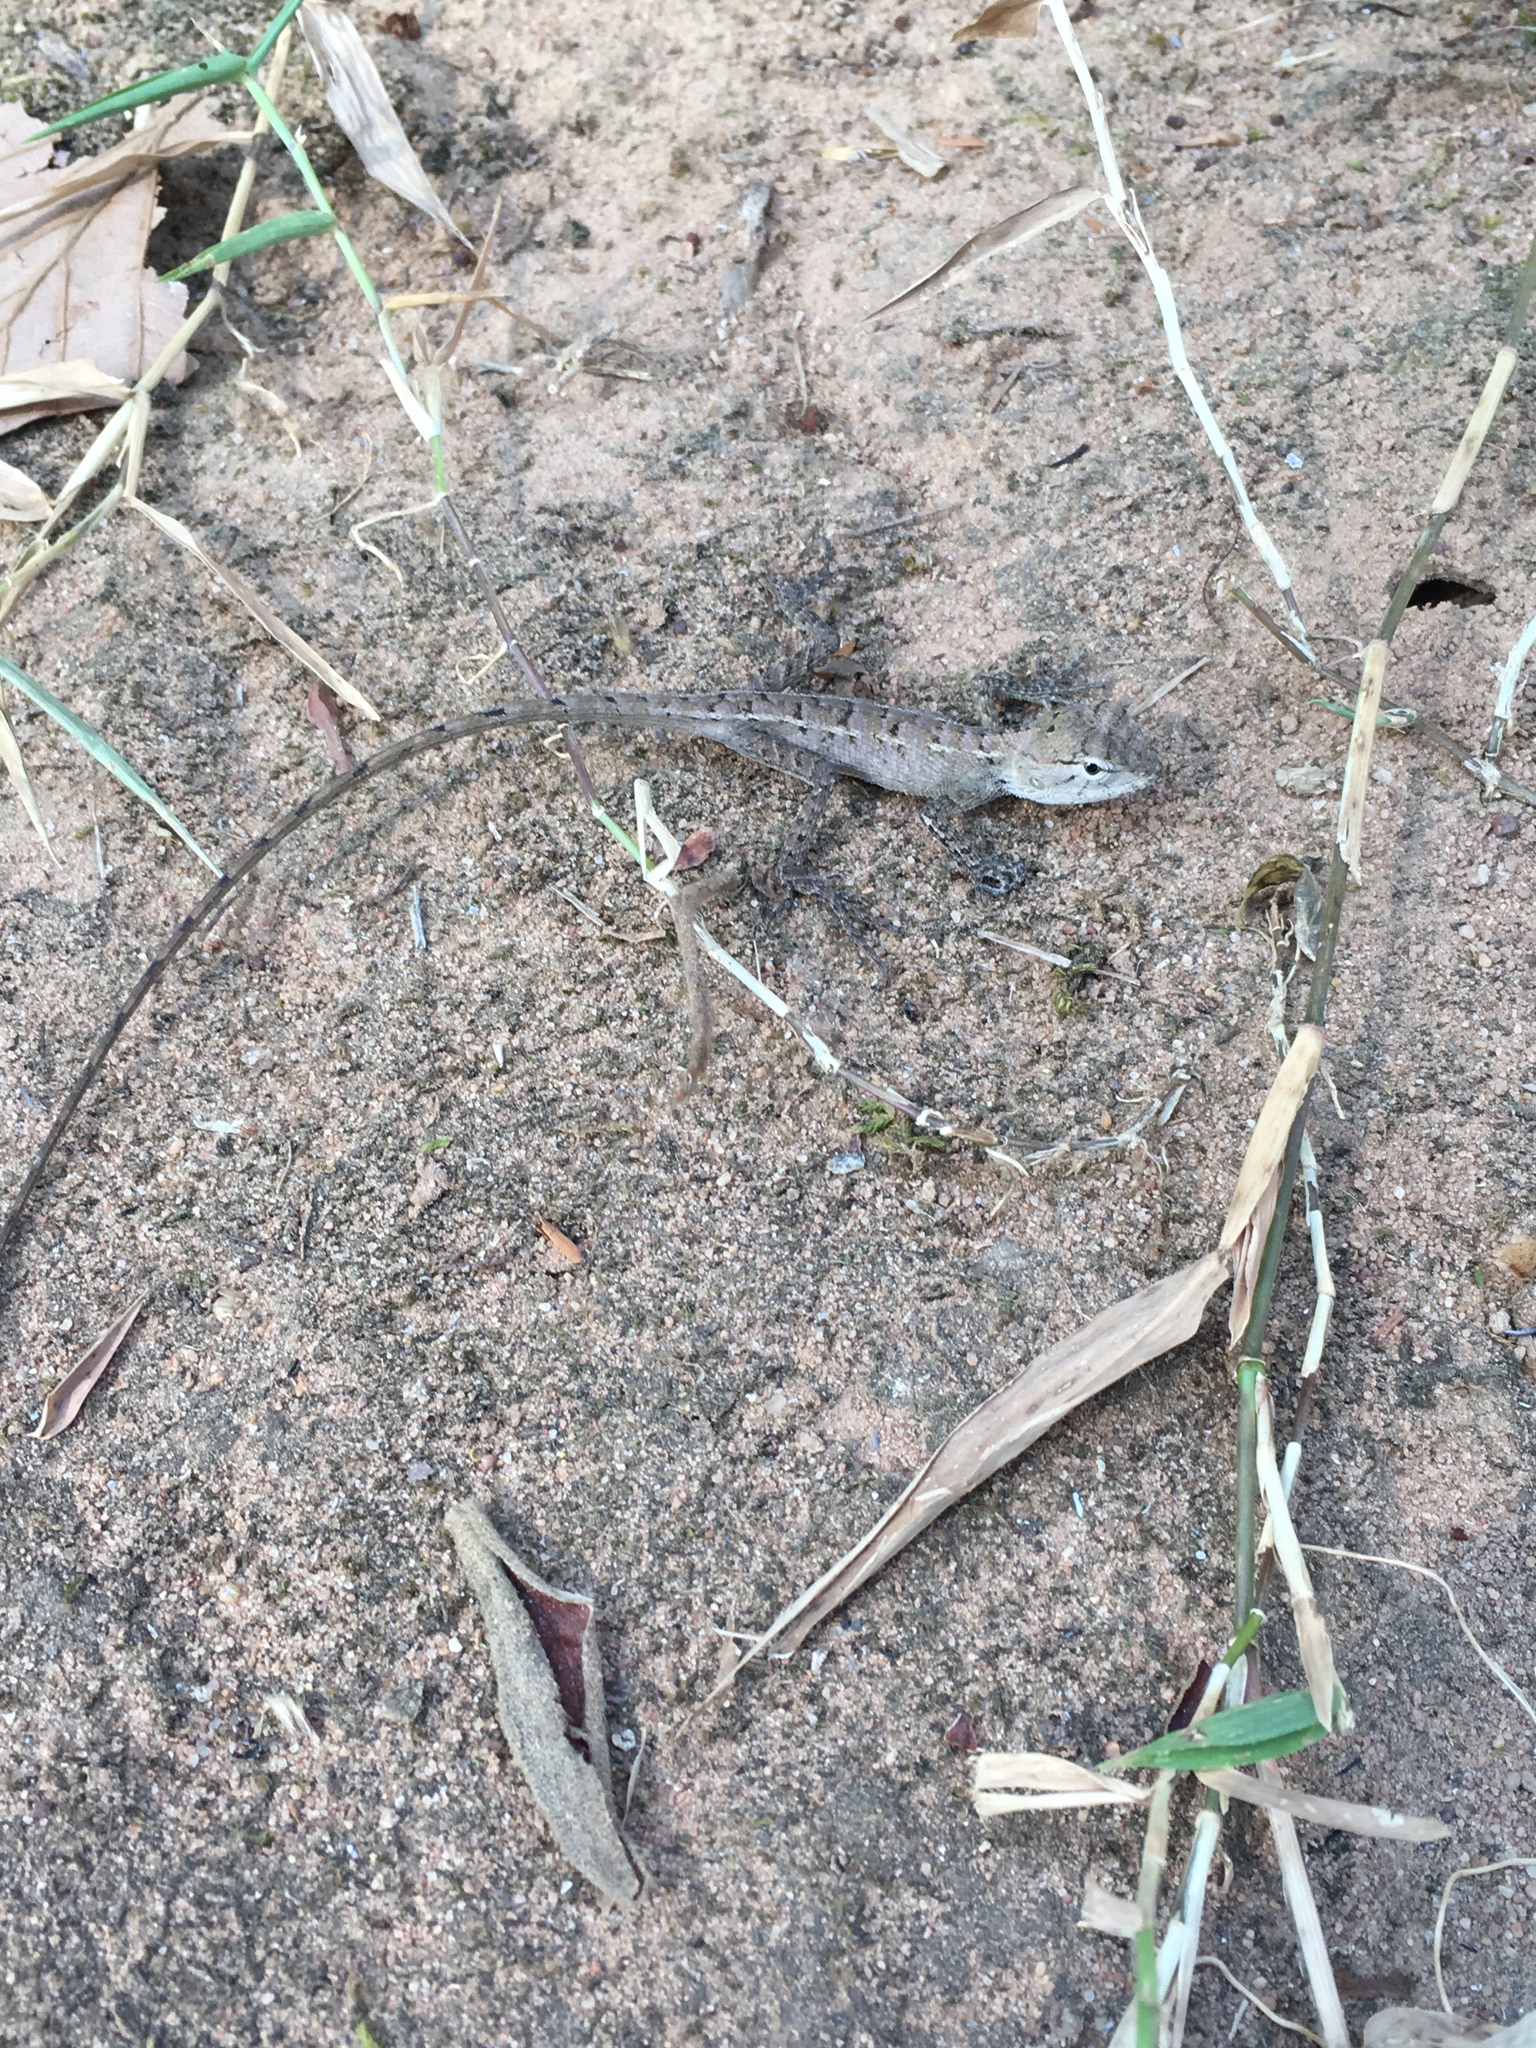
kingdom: Animalia
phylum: Chordata
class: Squamata
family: Agamidae
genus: Calotes
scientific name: Calotes versicolor
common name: Oriental garden lizard
